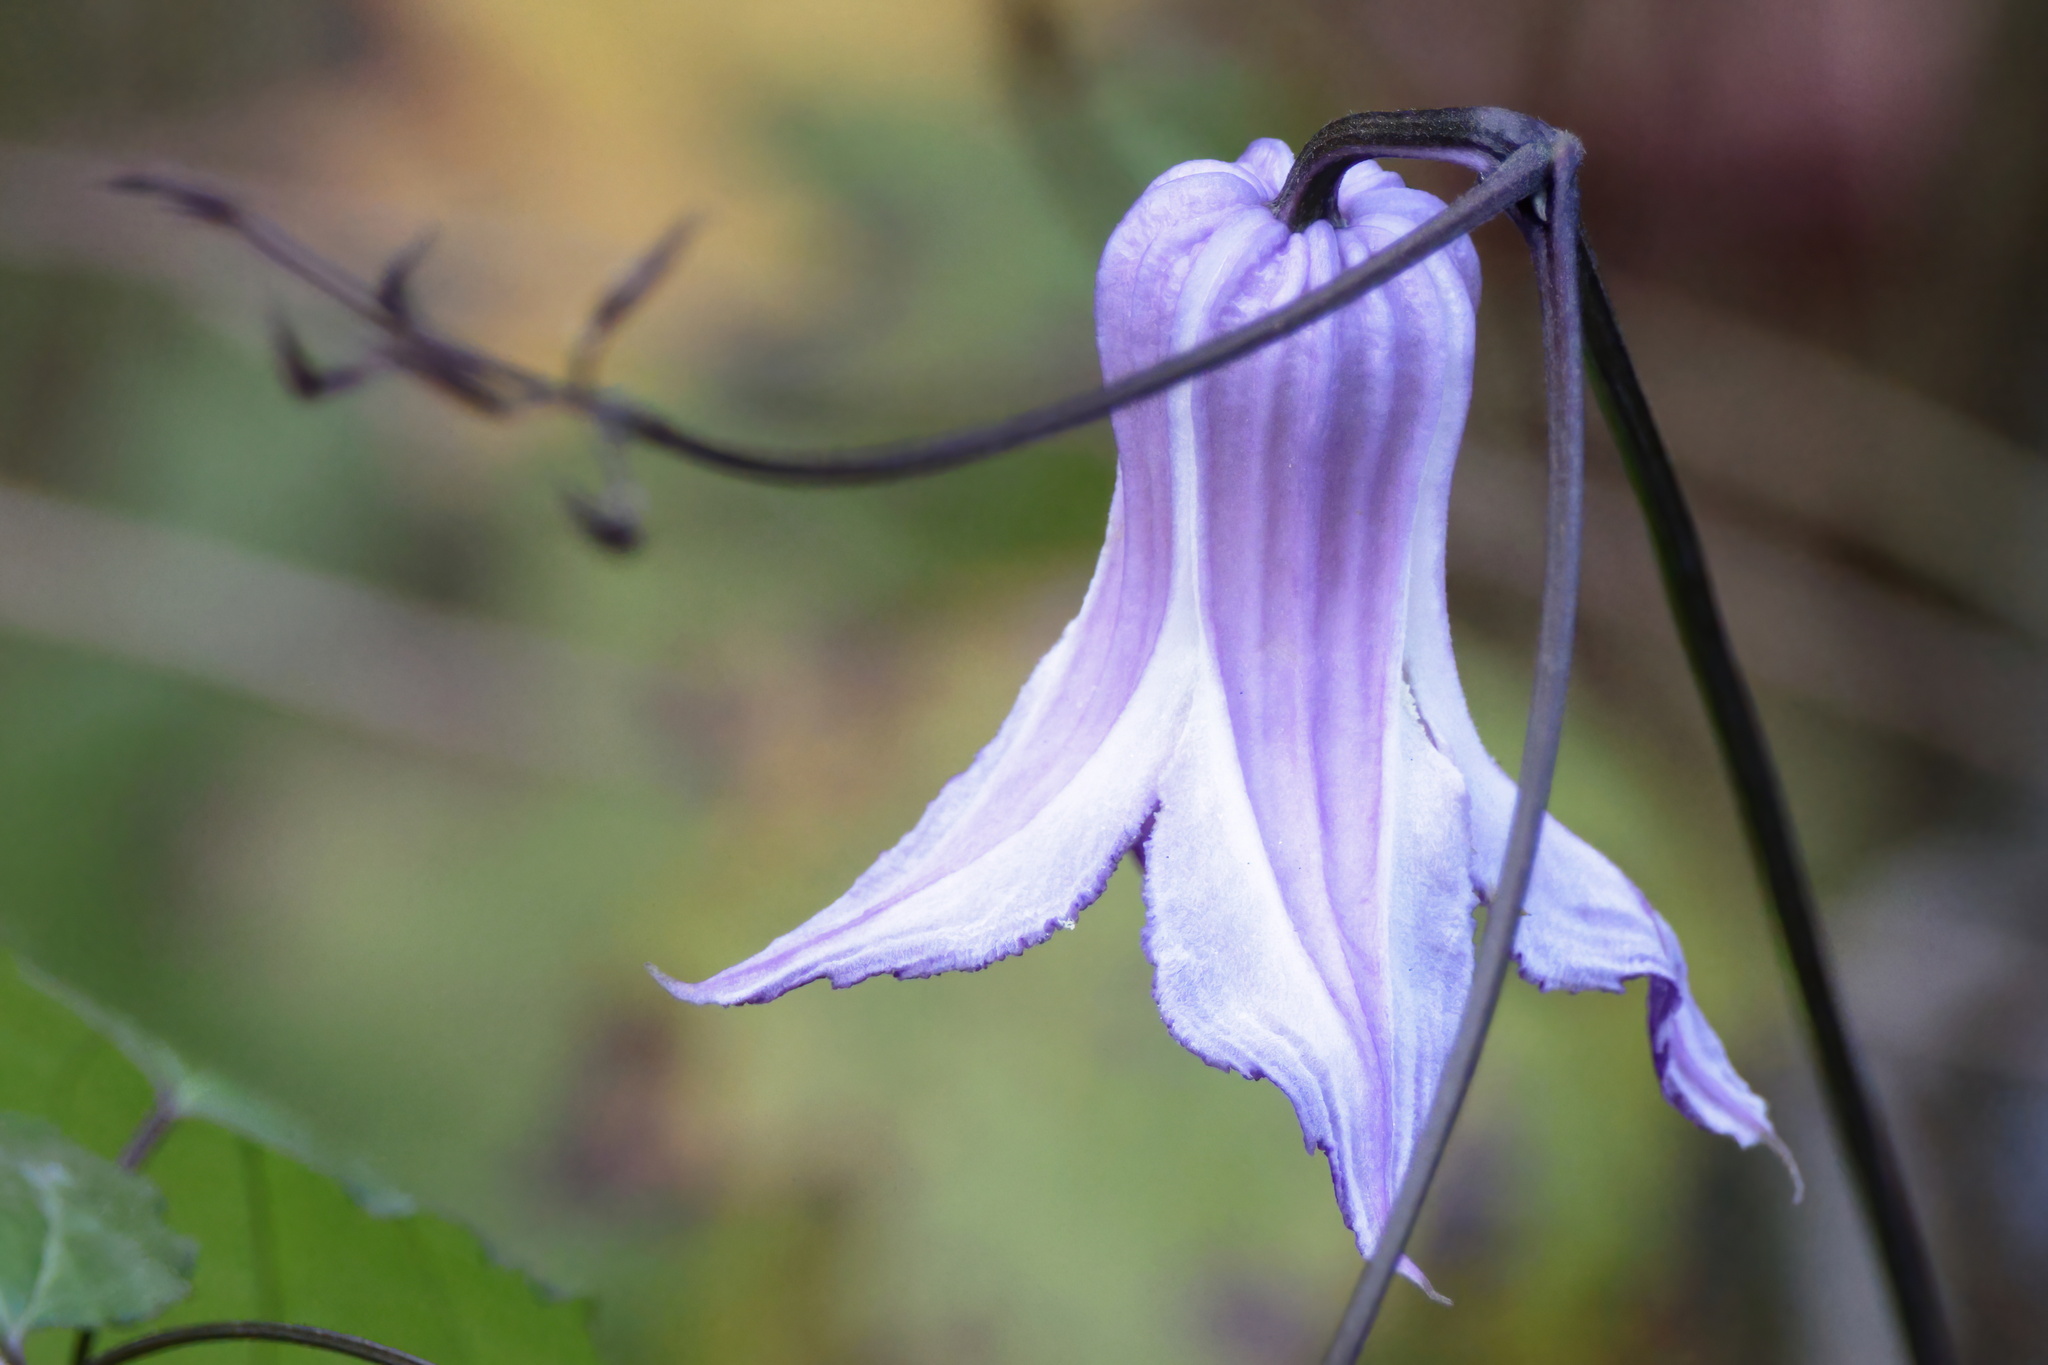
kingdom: Plantae
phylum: Tracheophyta
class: Magnoliopsida
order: Ranunculales
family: Ranunculaceae
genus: Clematis
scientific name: Clematis crispa
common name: Curly clematis
